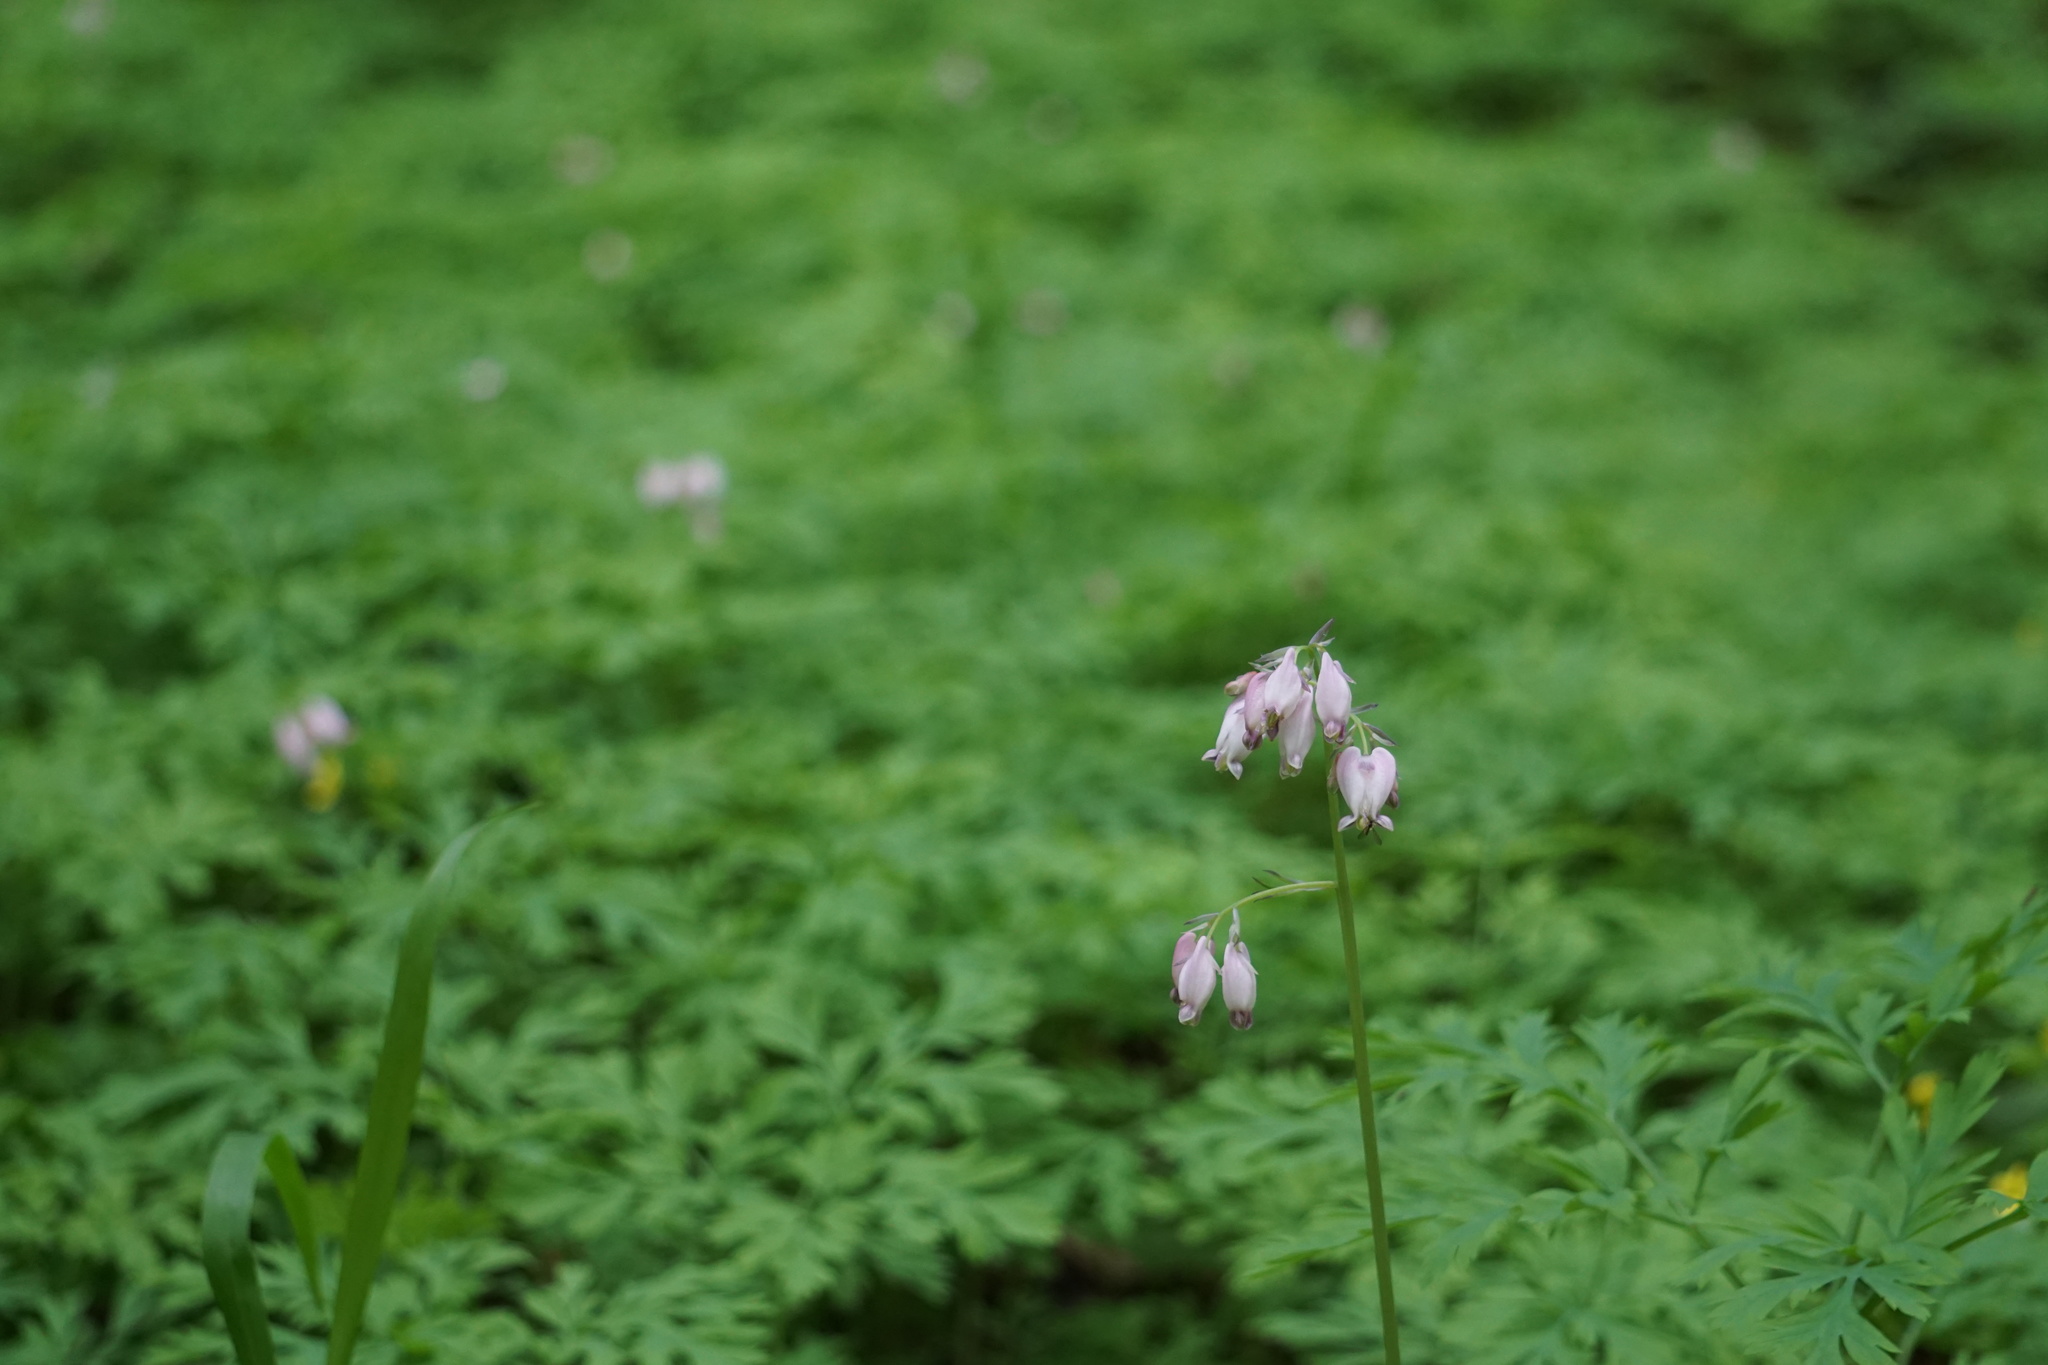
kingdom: Plantae
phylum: Tracheophyta
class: Magnoliopsida
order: Ranunculales
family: Papaveraceae
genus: Dicentra
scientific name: Dicentra formosa
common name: Bleeding-heart
